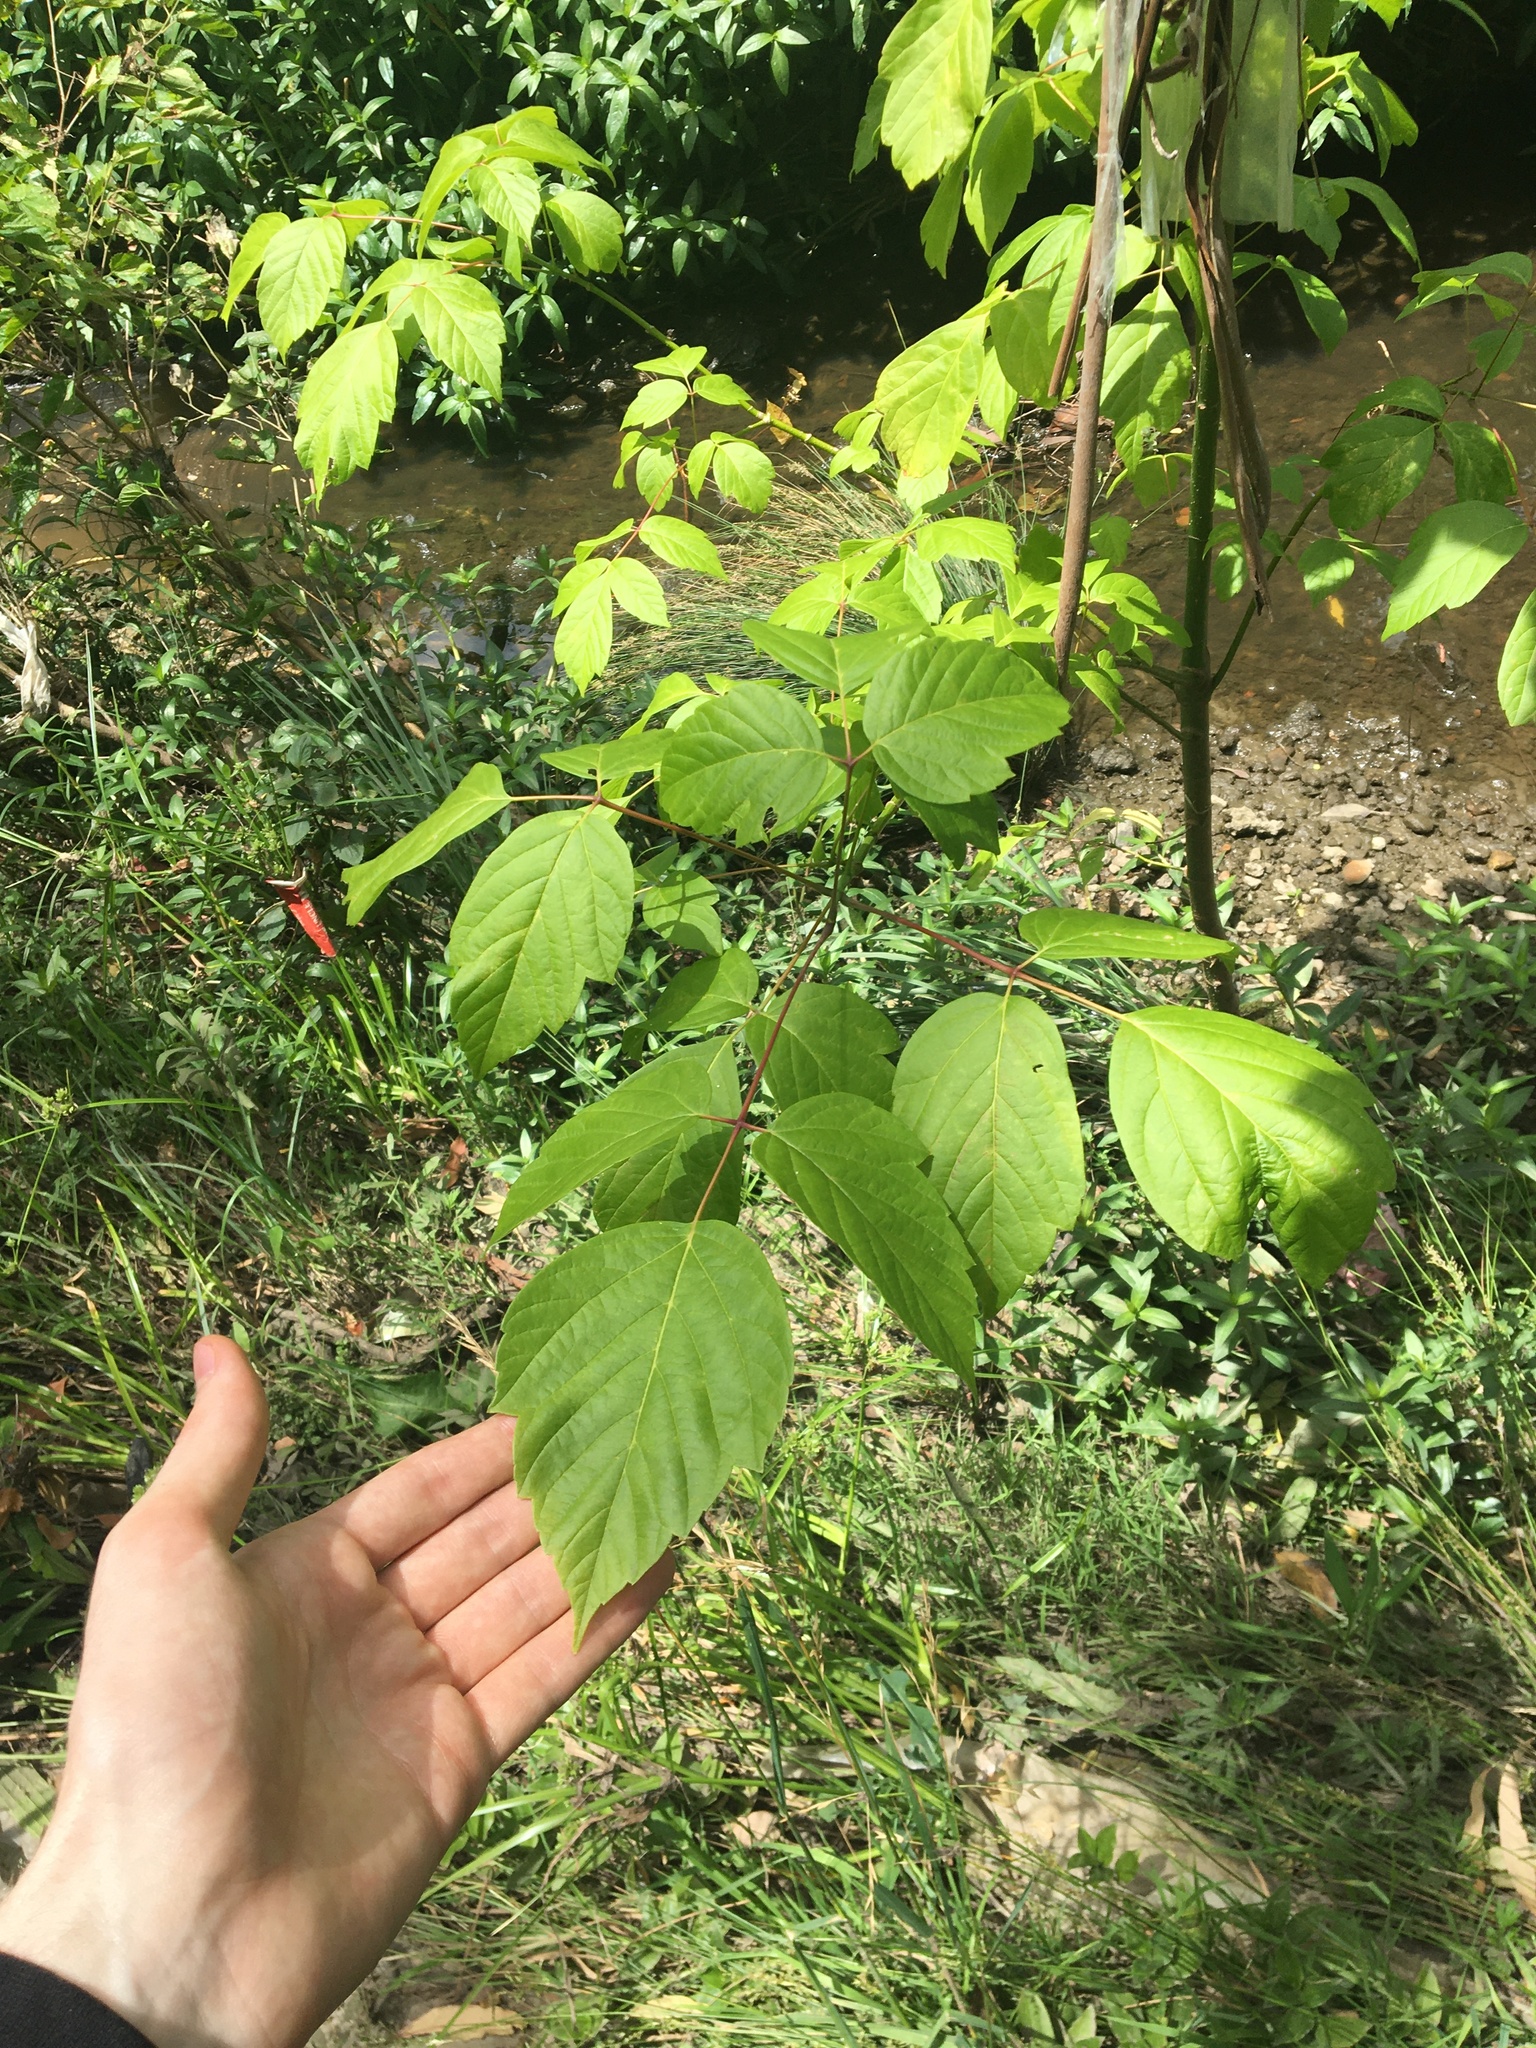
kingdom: Plantae
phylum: Tracheophyta
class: Magnoliopsida
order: Sapindales
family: Sapindaceae
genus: Acer
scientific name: Acer negundo
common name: Ashleaf maple
